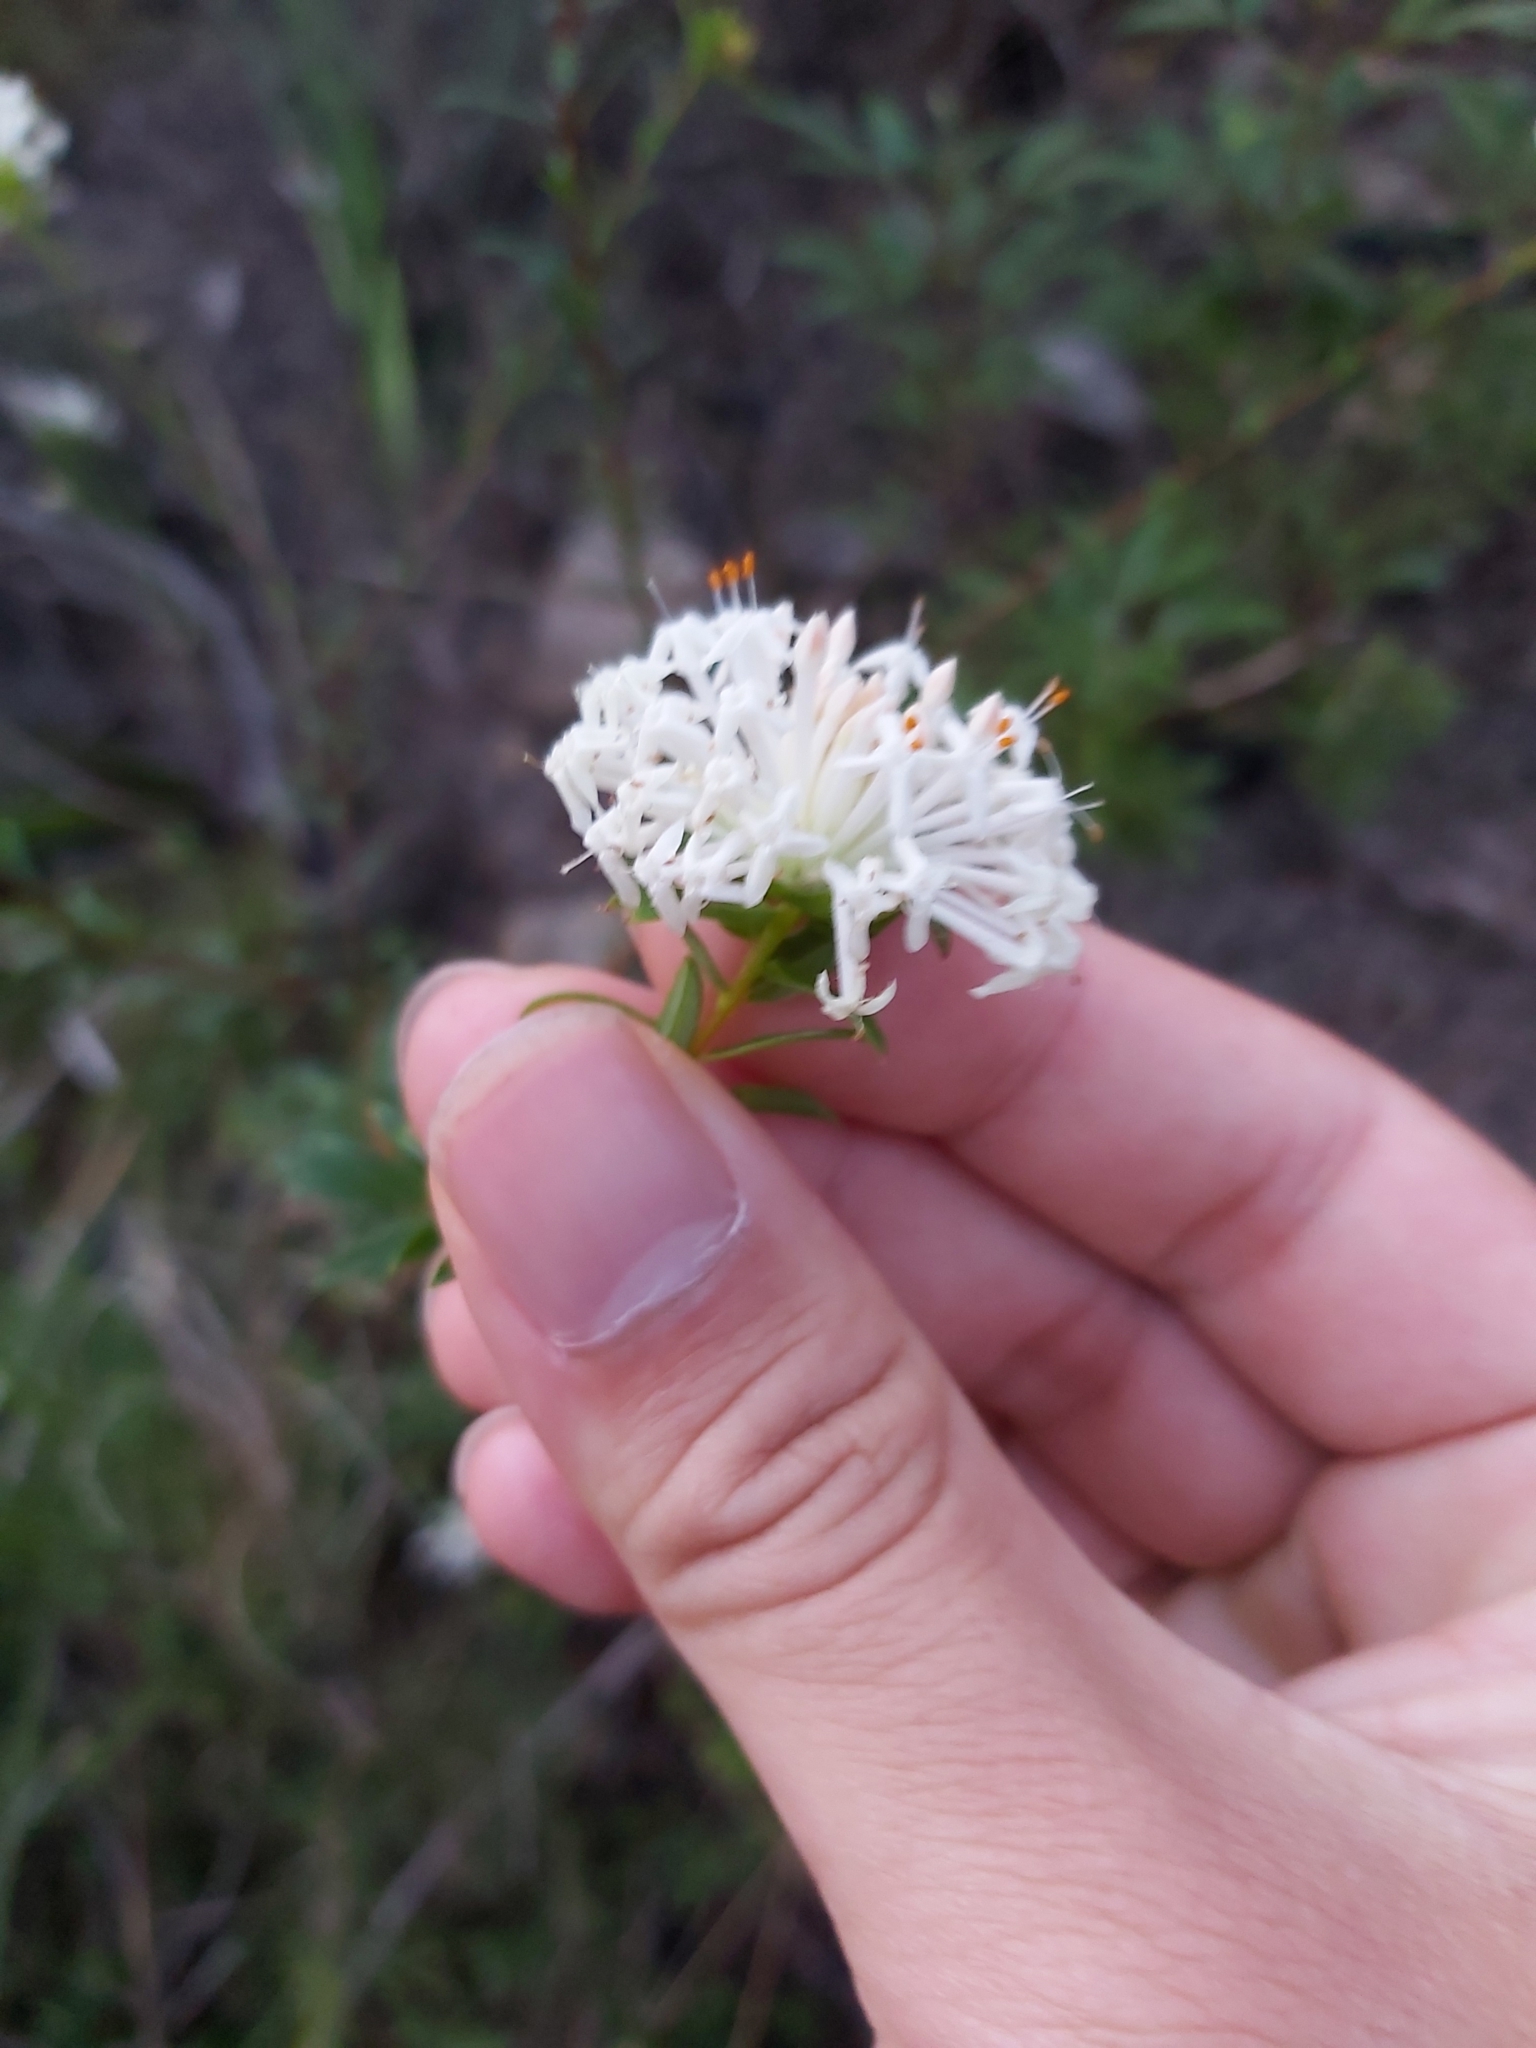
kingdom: Plantae
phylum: Tracheophyta
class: Magnoliopsida
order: Malvales
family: Thymelaeaceae
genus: Pimelea
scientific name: Pimelea linifolia
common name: Queen-of-the-bush
